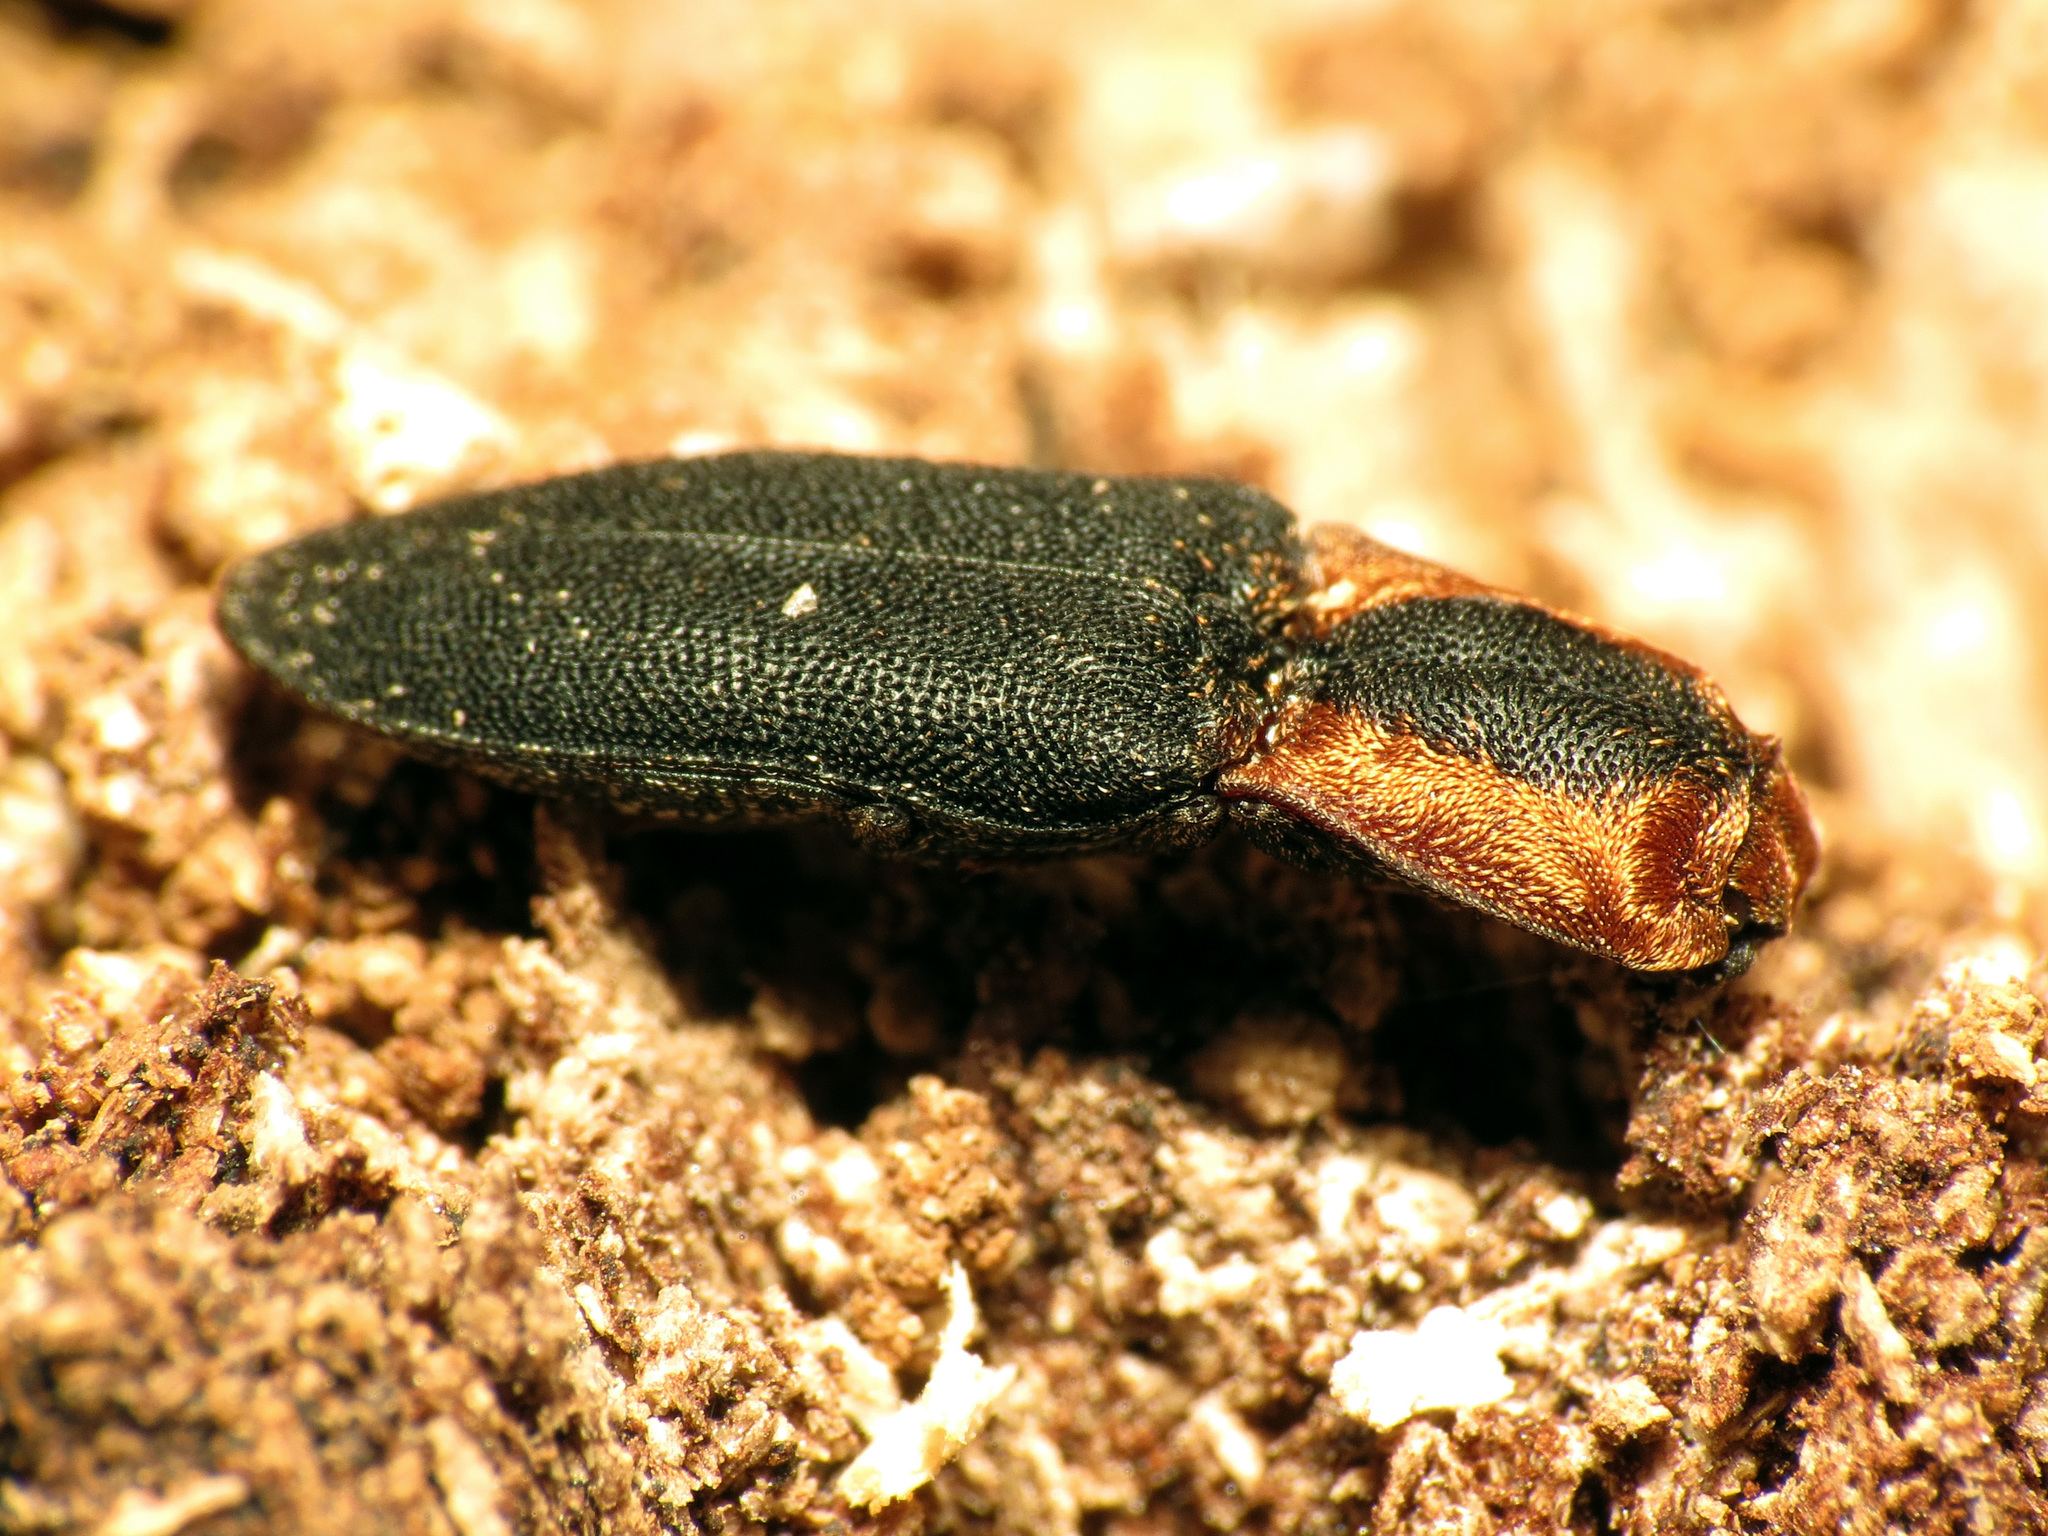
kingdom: Animalia
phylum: Arthropoda
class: Insecta
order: Coleoptera
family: Elateridae
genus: Lacon
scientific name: Lacon discoideus
